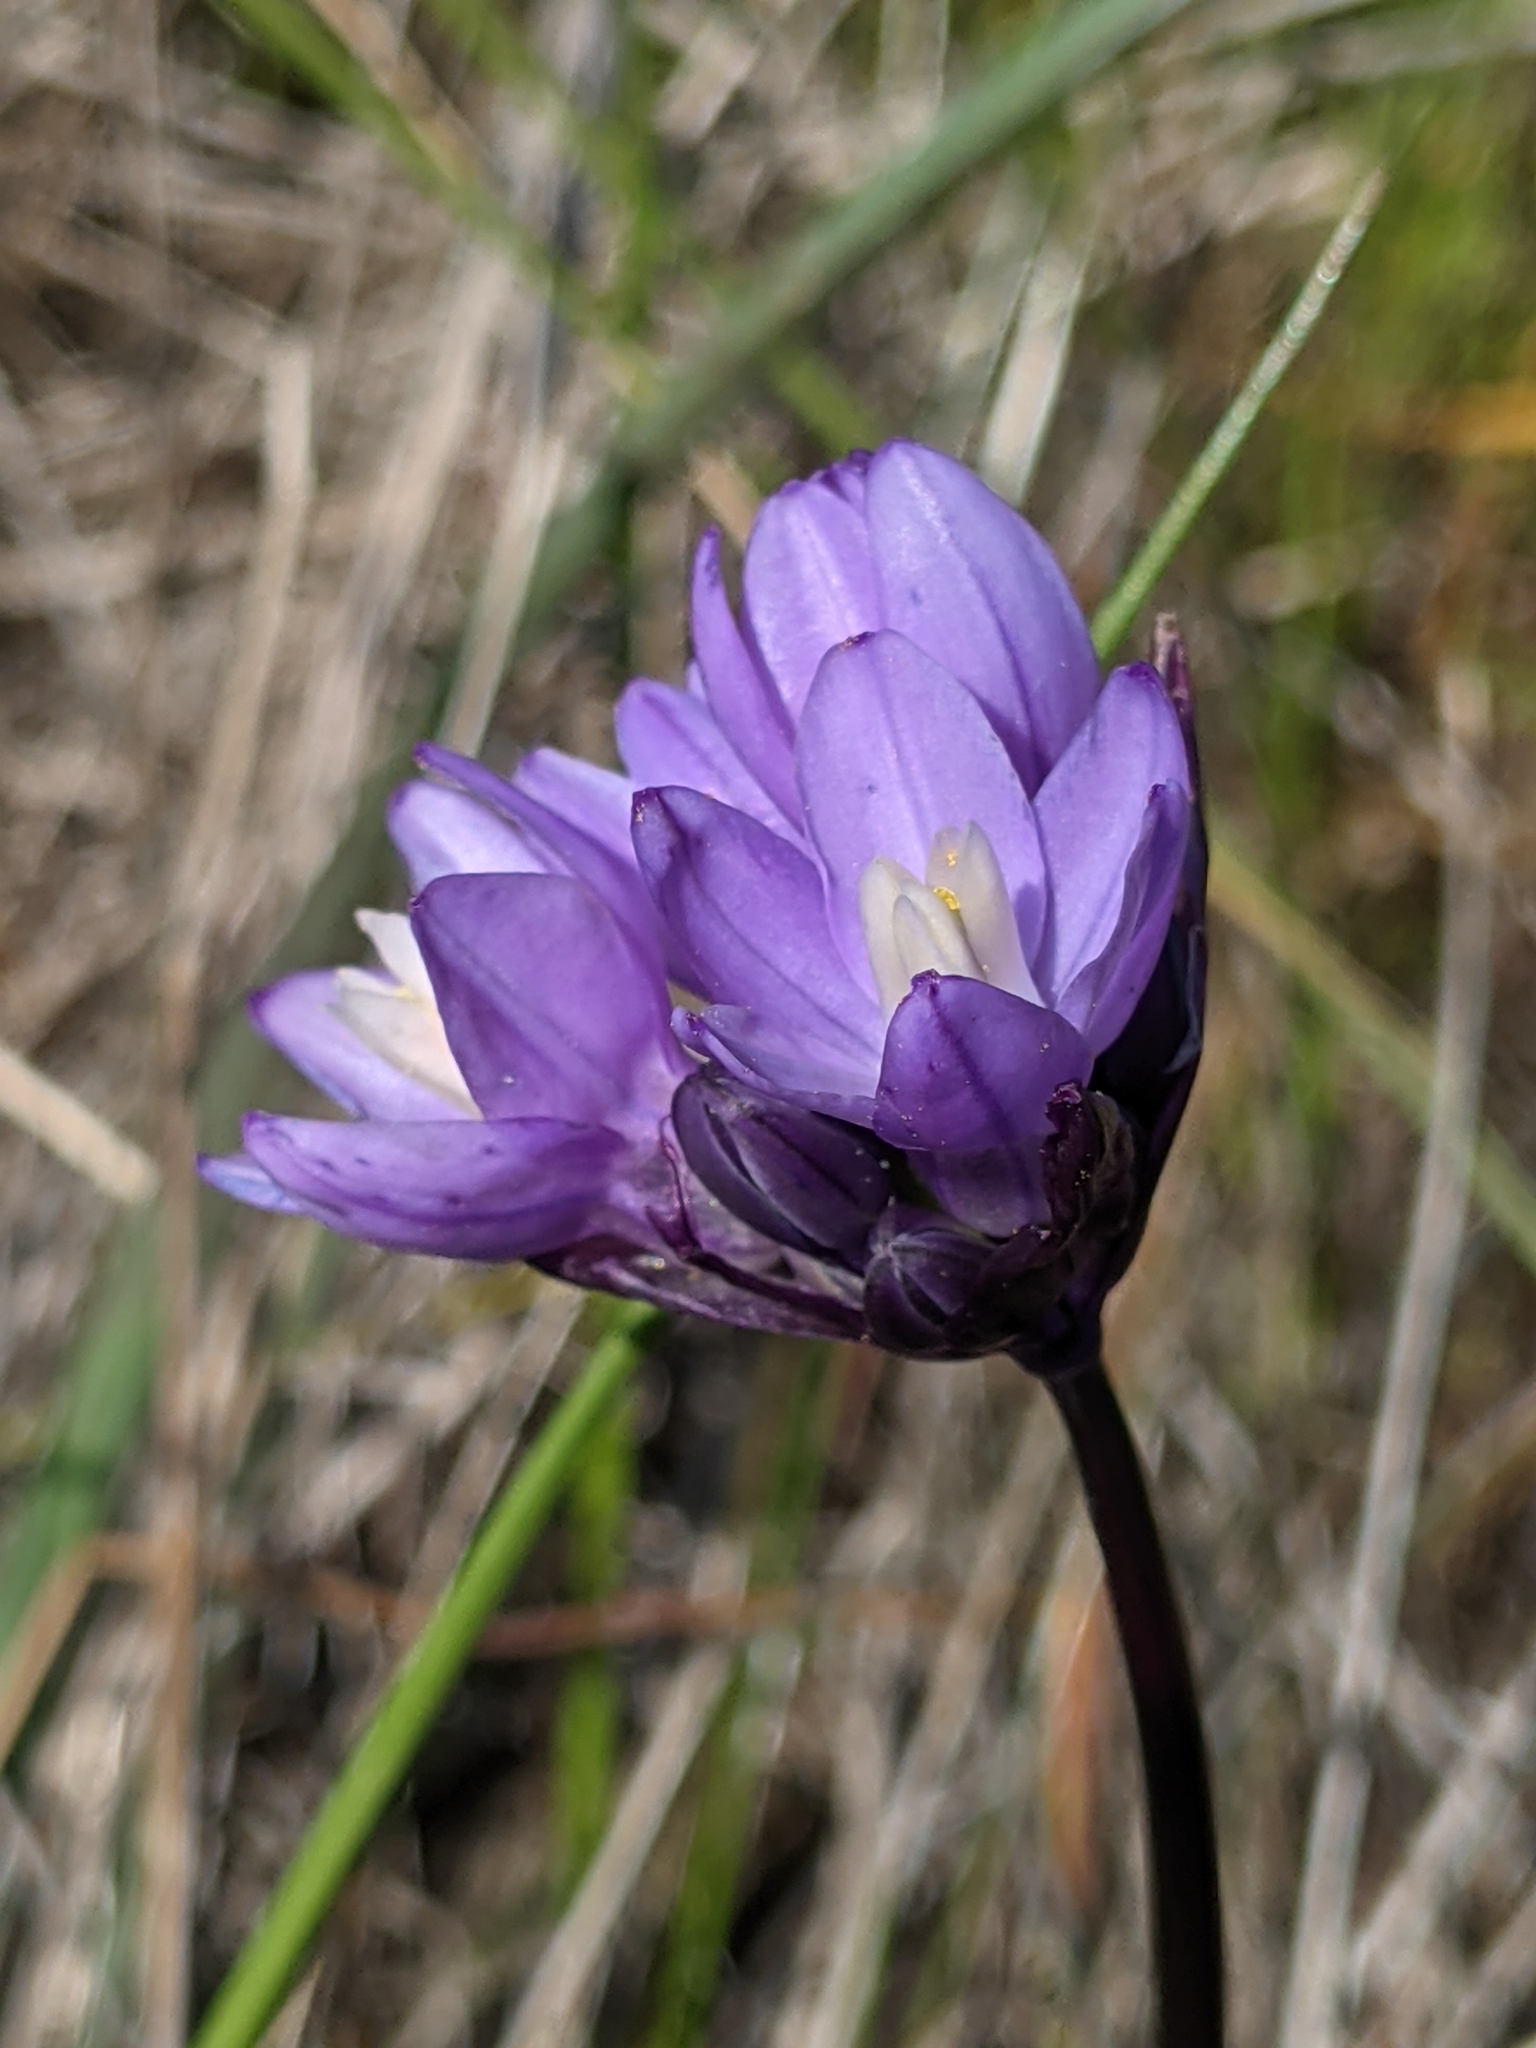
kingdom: Plantae
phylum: Tracheophyta
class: Liliopsida
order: Asparagales
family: Asparagaceae
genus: Dipterostemon
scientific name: Dipterostemon capitatus
